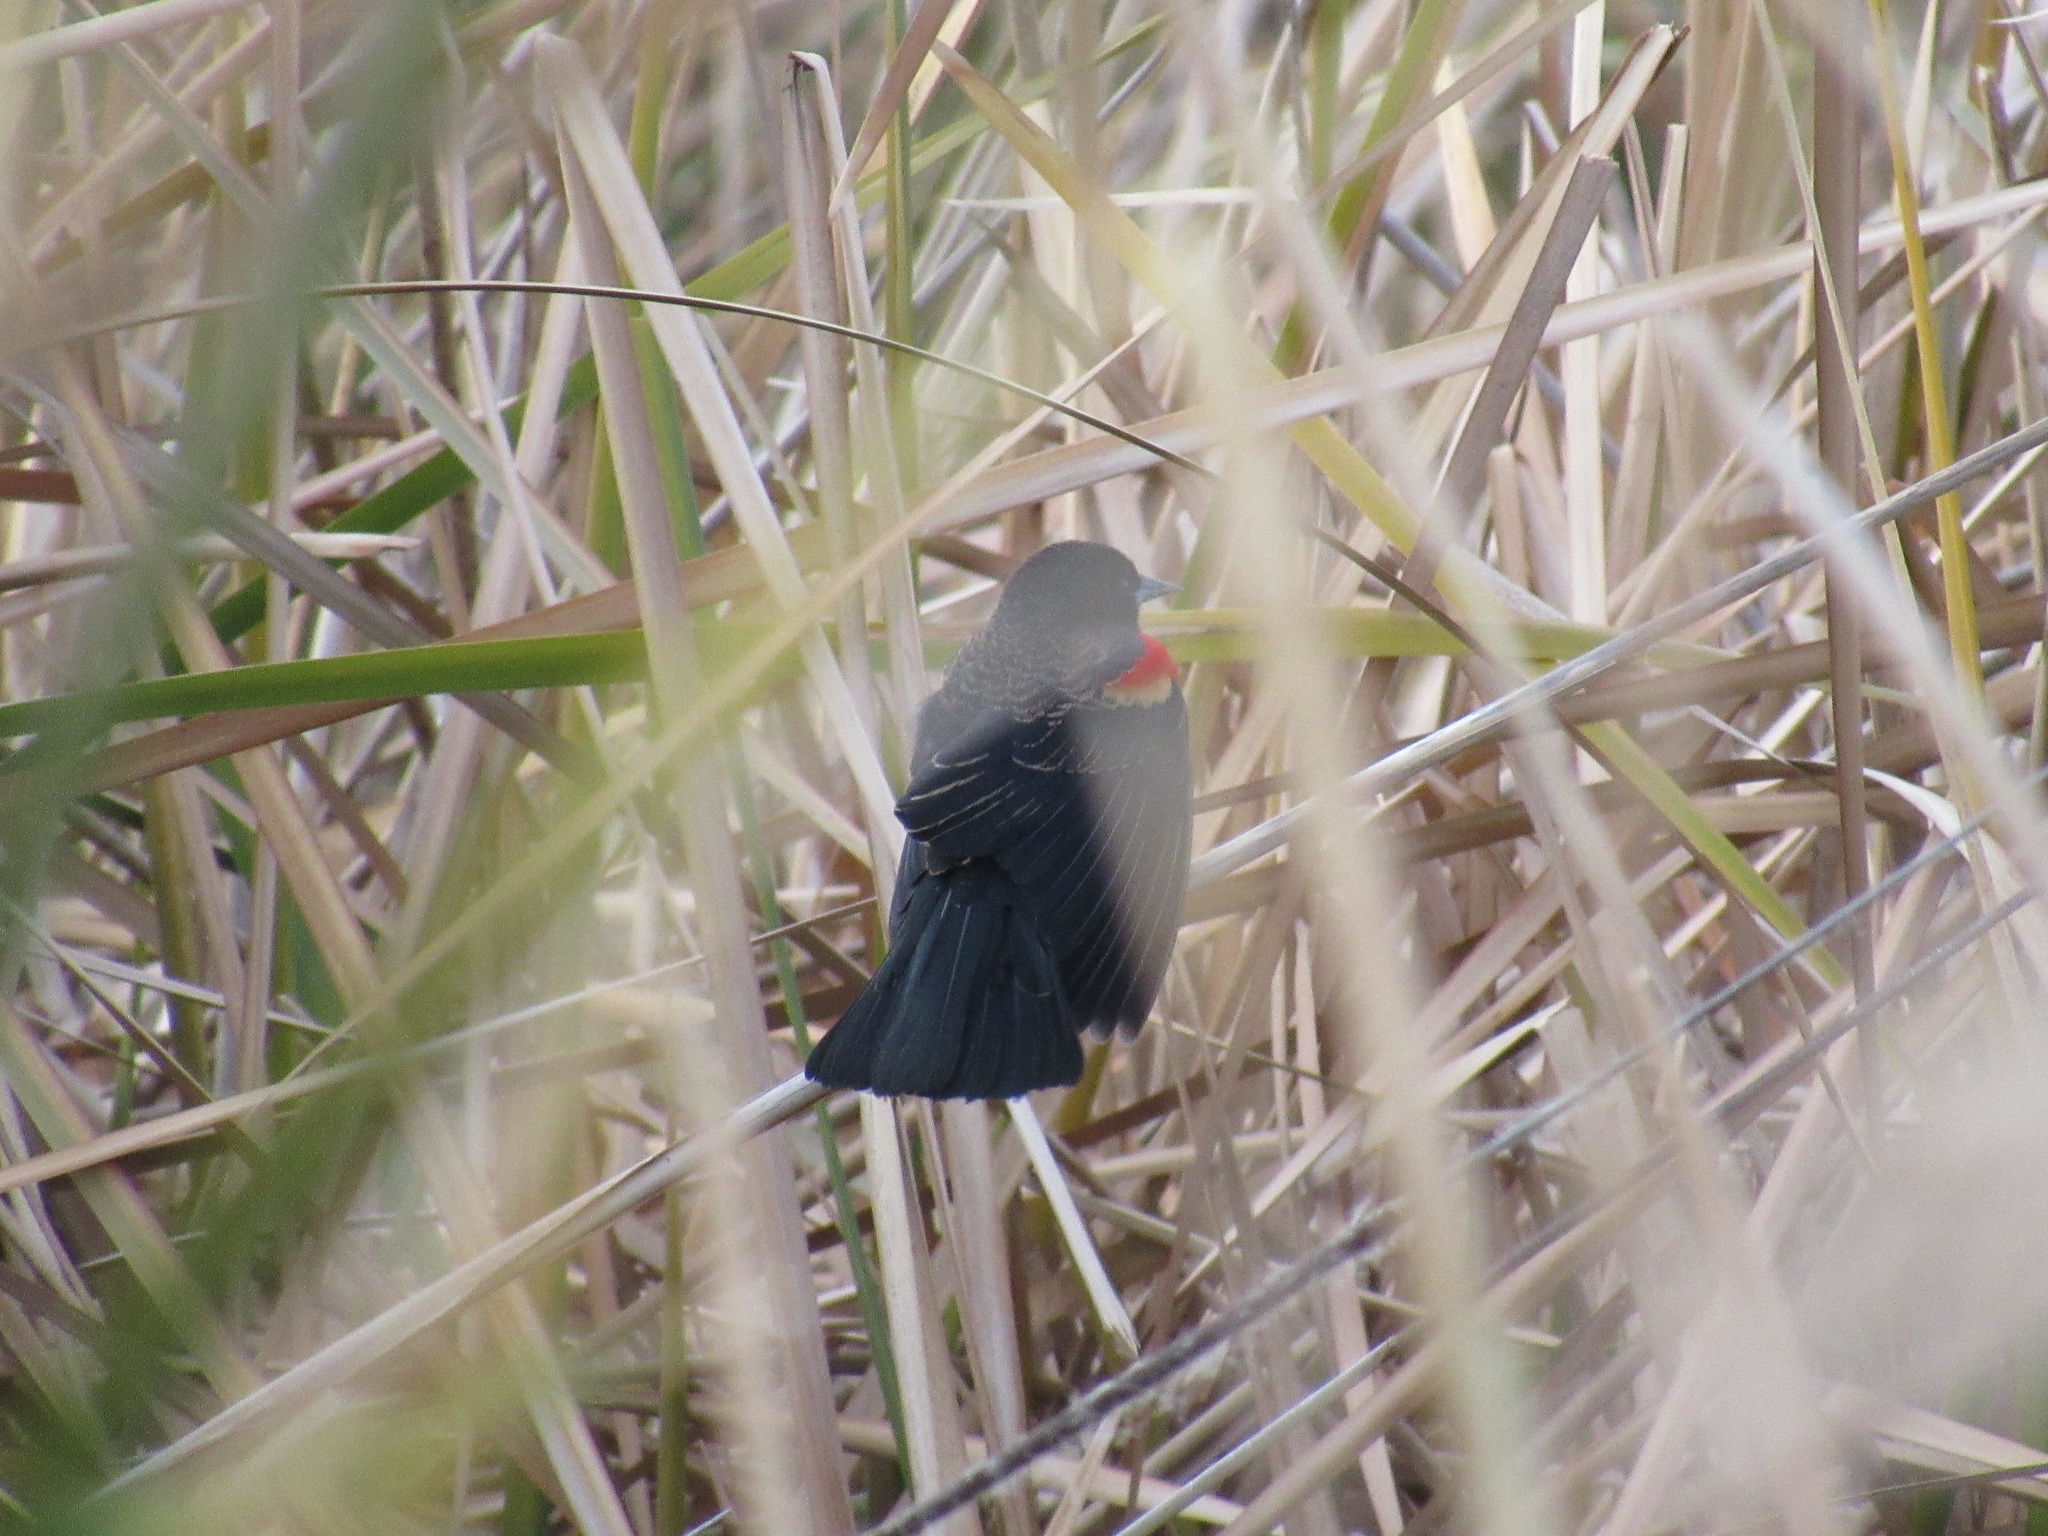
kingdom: Animalia
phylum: Chordata
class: Aves
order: Passeriformes
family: Icteridae
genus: Agelaius
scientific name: Agelaius phoeniceus
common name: Red-winged blackbird
